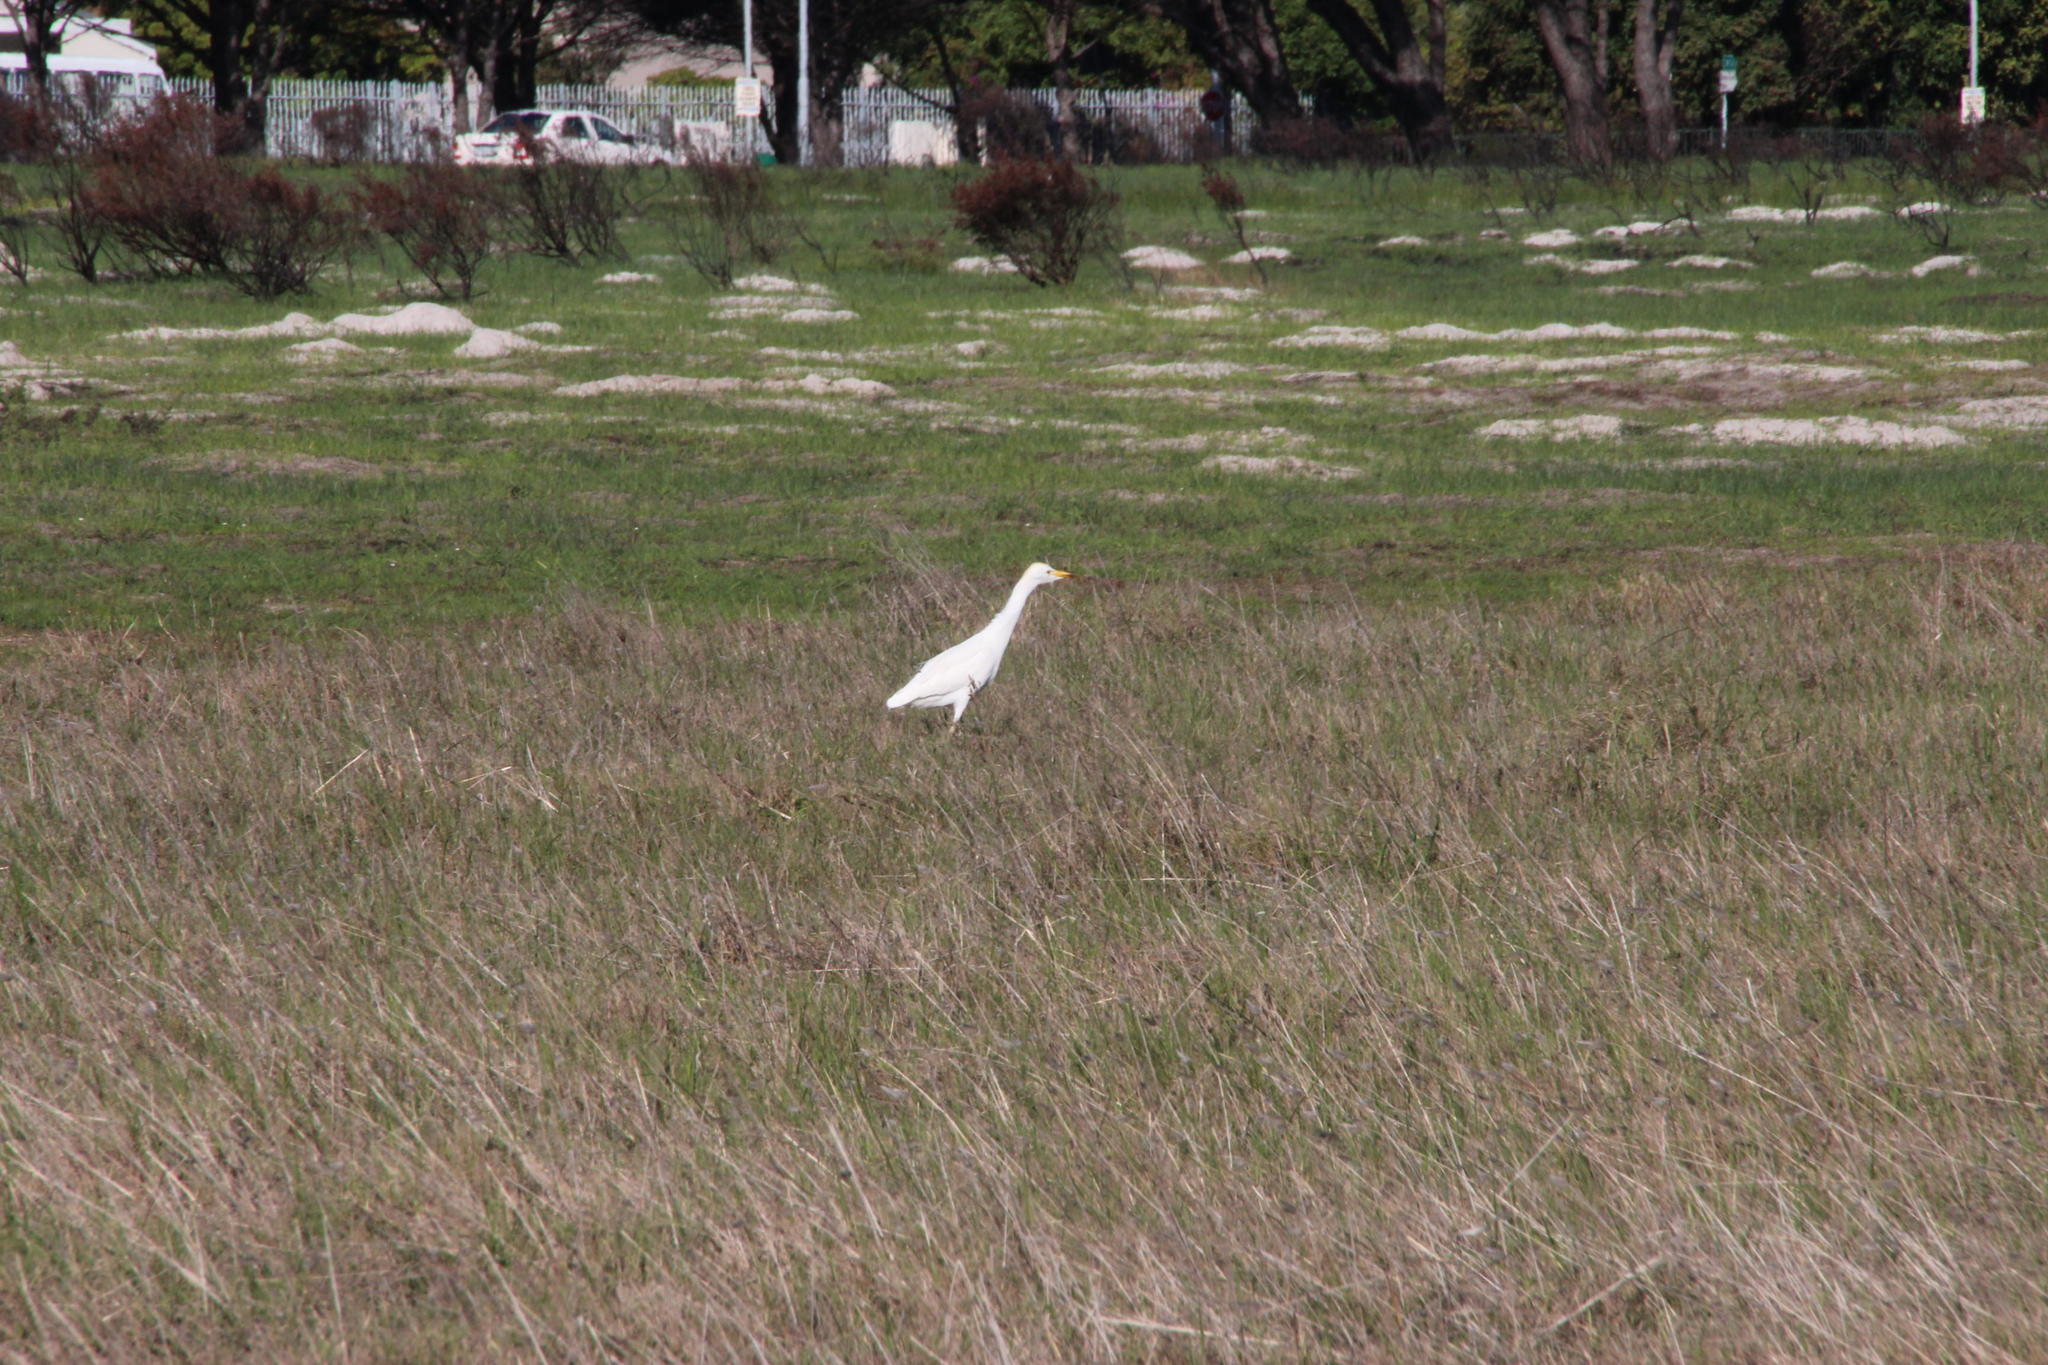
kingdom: Animalia
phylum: Chordata
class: Aves
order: Pelecaniformes
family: Ardeidae
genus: Bubulcus
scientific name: Bubulcus ibis
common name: Cattle egret
